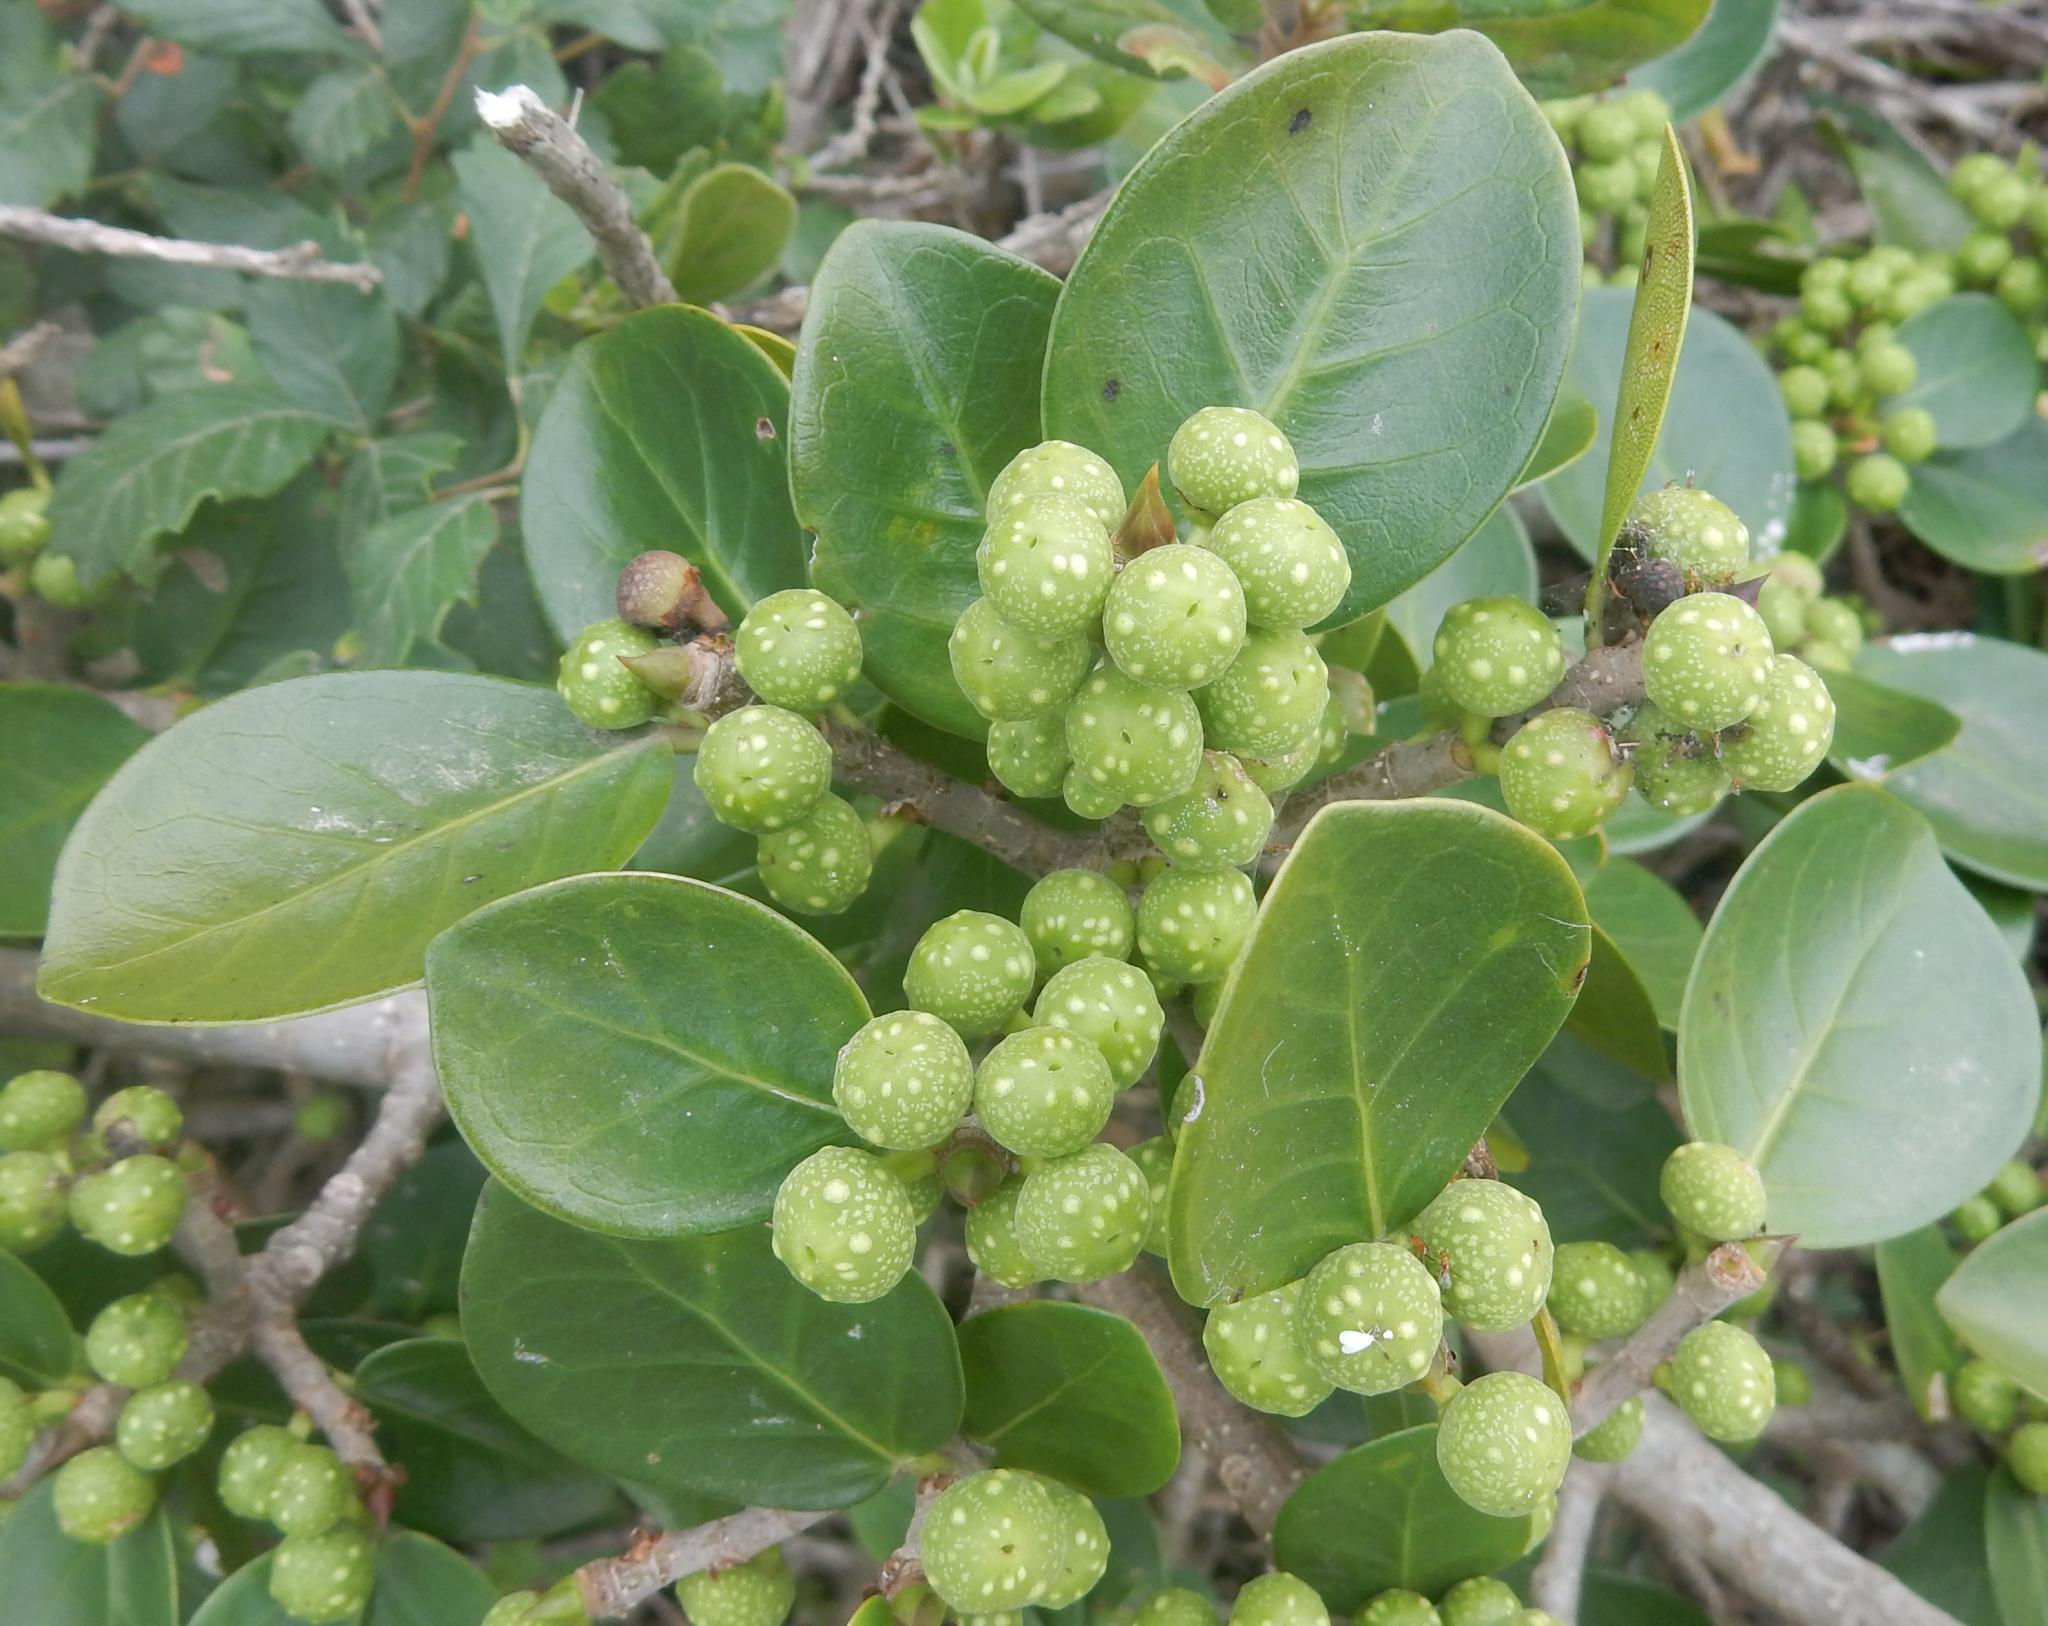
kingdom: Plantae
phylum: Tracheophyta
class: Magnoliopsida
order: Rosales
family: Moraceae
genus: Ficus
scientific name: Ficus burtt-davyi
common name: Scrambling fig
